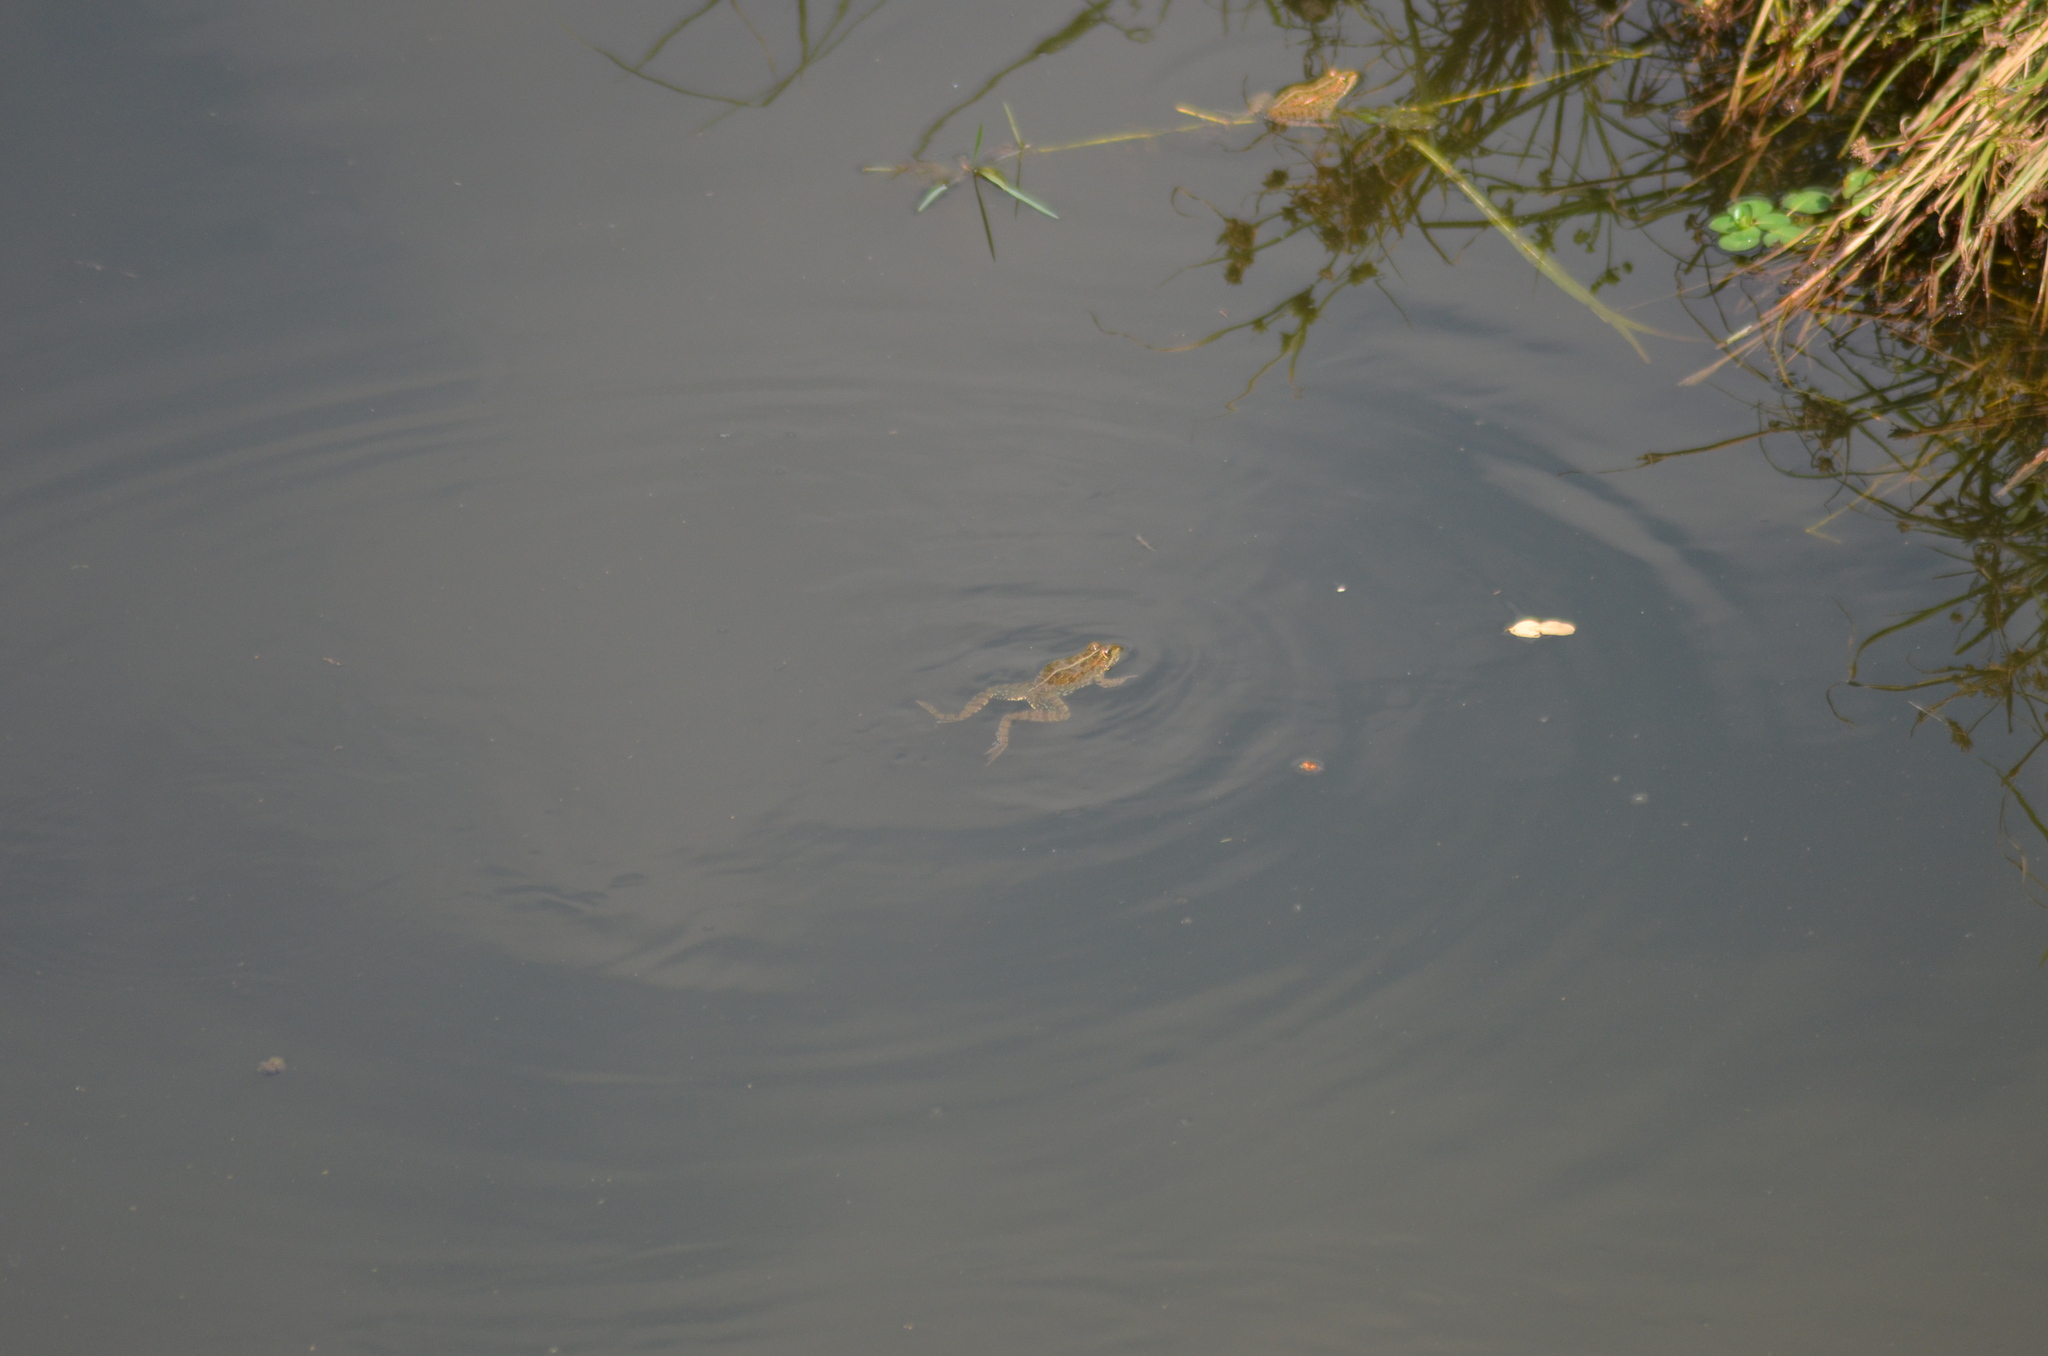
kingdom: Animalia
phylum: Chordata
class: Amphibia
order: Anura
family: Ranidae
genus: Pelophylax
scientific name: Pelophylax perezi
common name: Perez's frog
